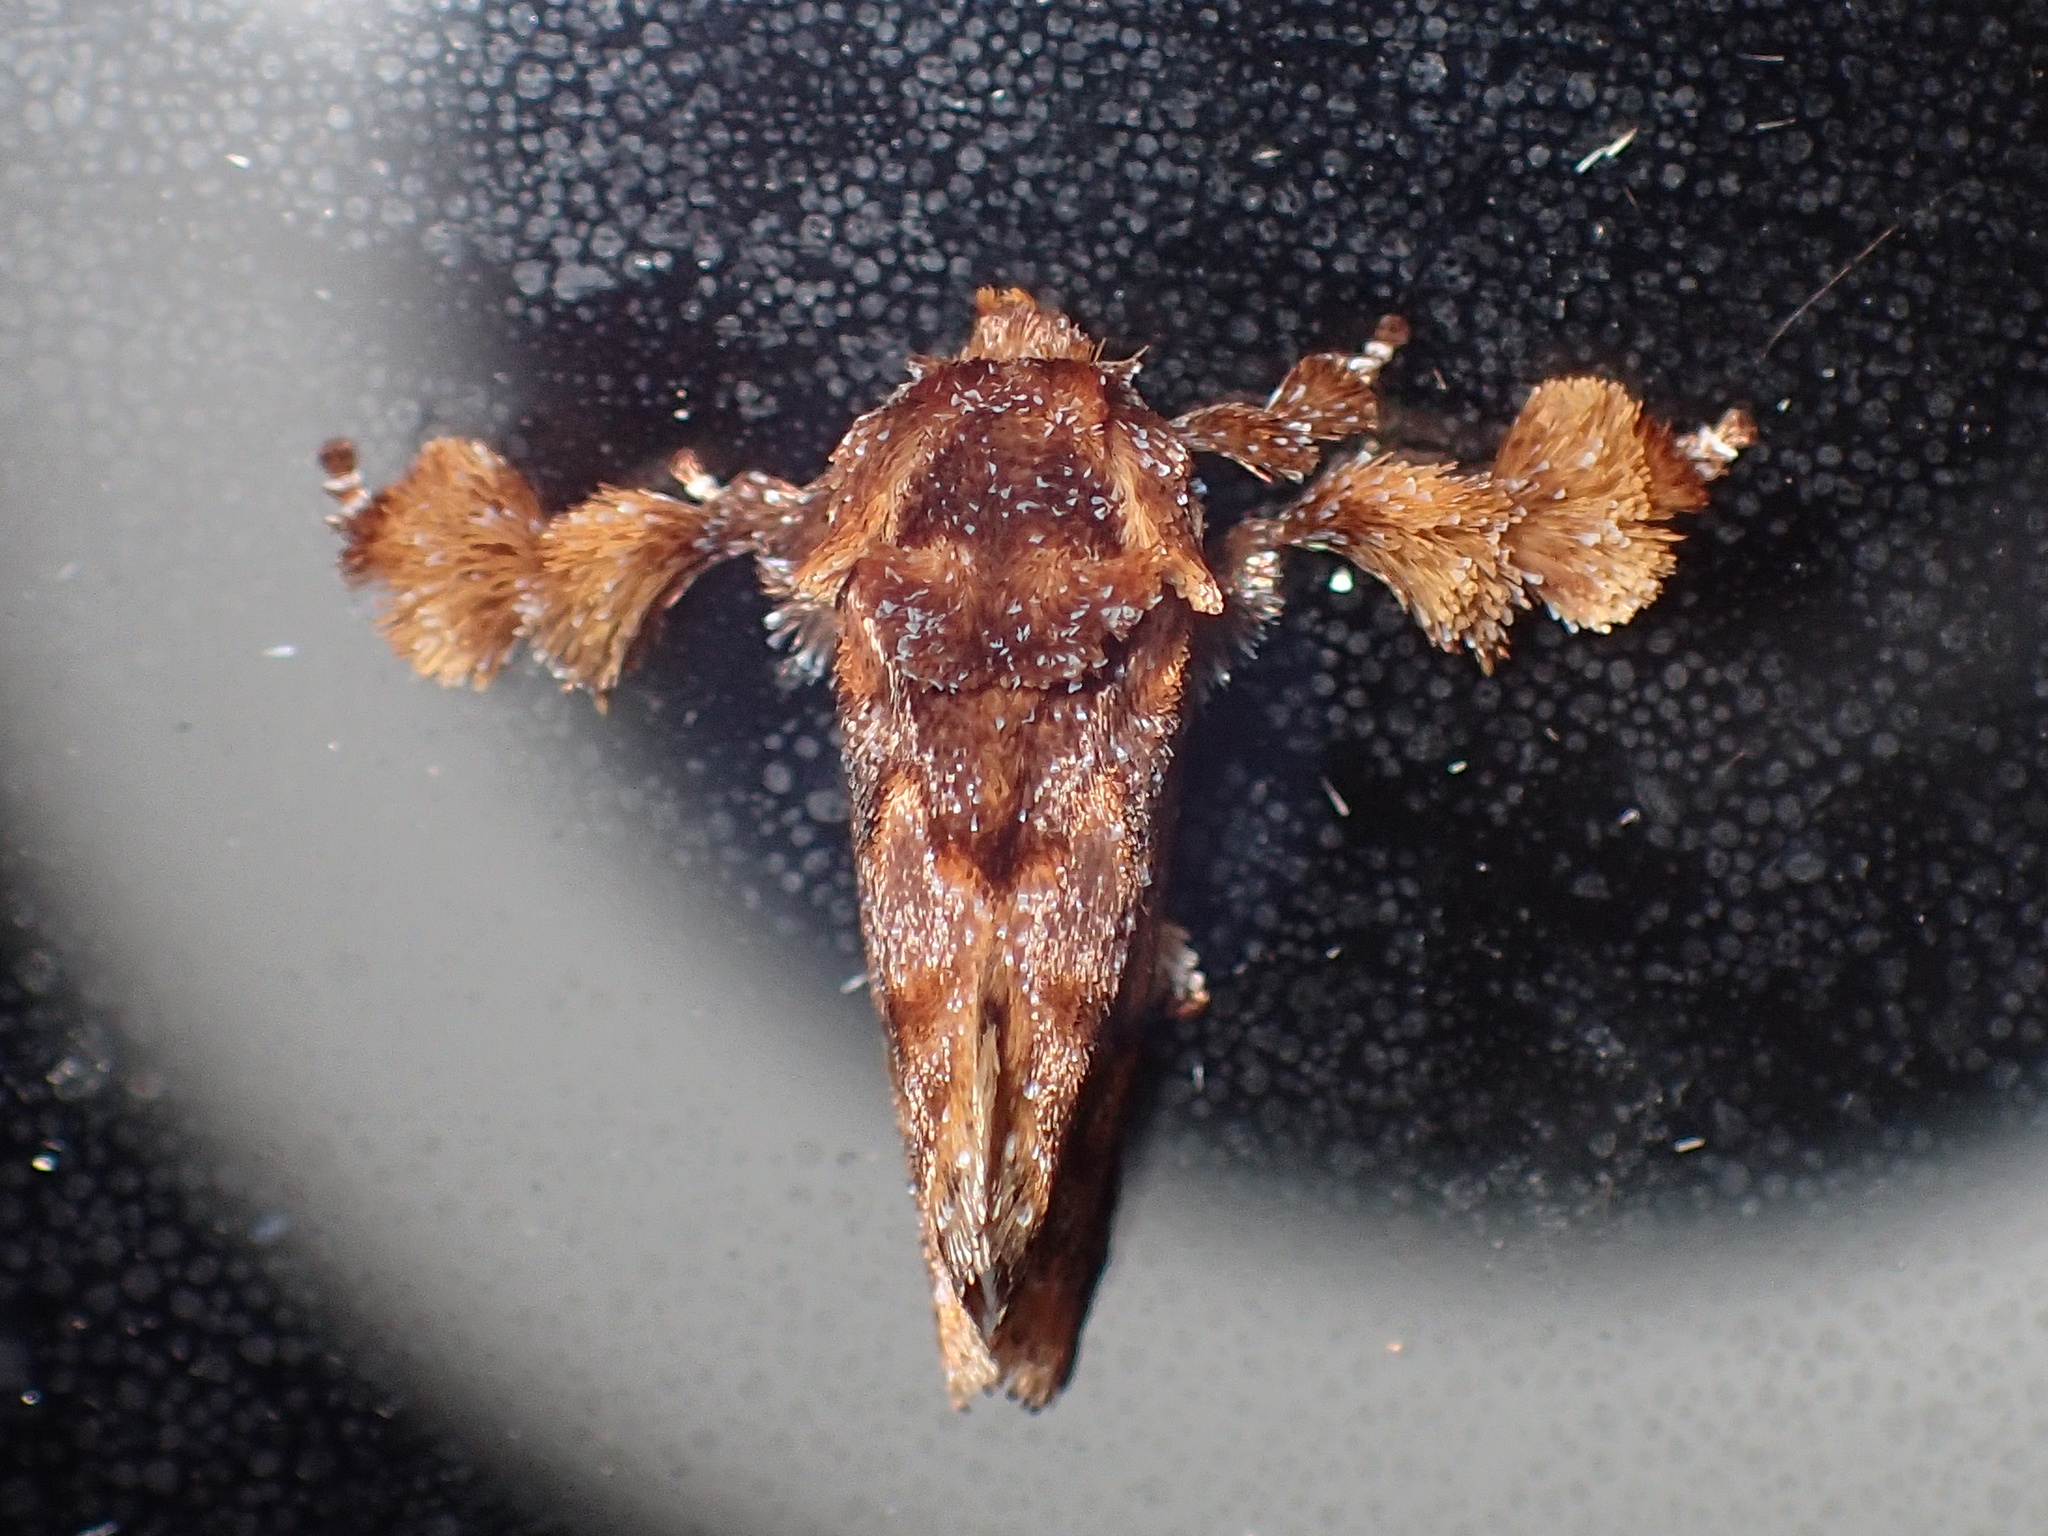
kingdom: Animalia
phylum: Arthropoda
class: Insecta
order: Lepidoptera
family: Limacodidae
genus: Isochaetes
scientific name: Isochaetes beutenmuelleri
